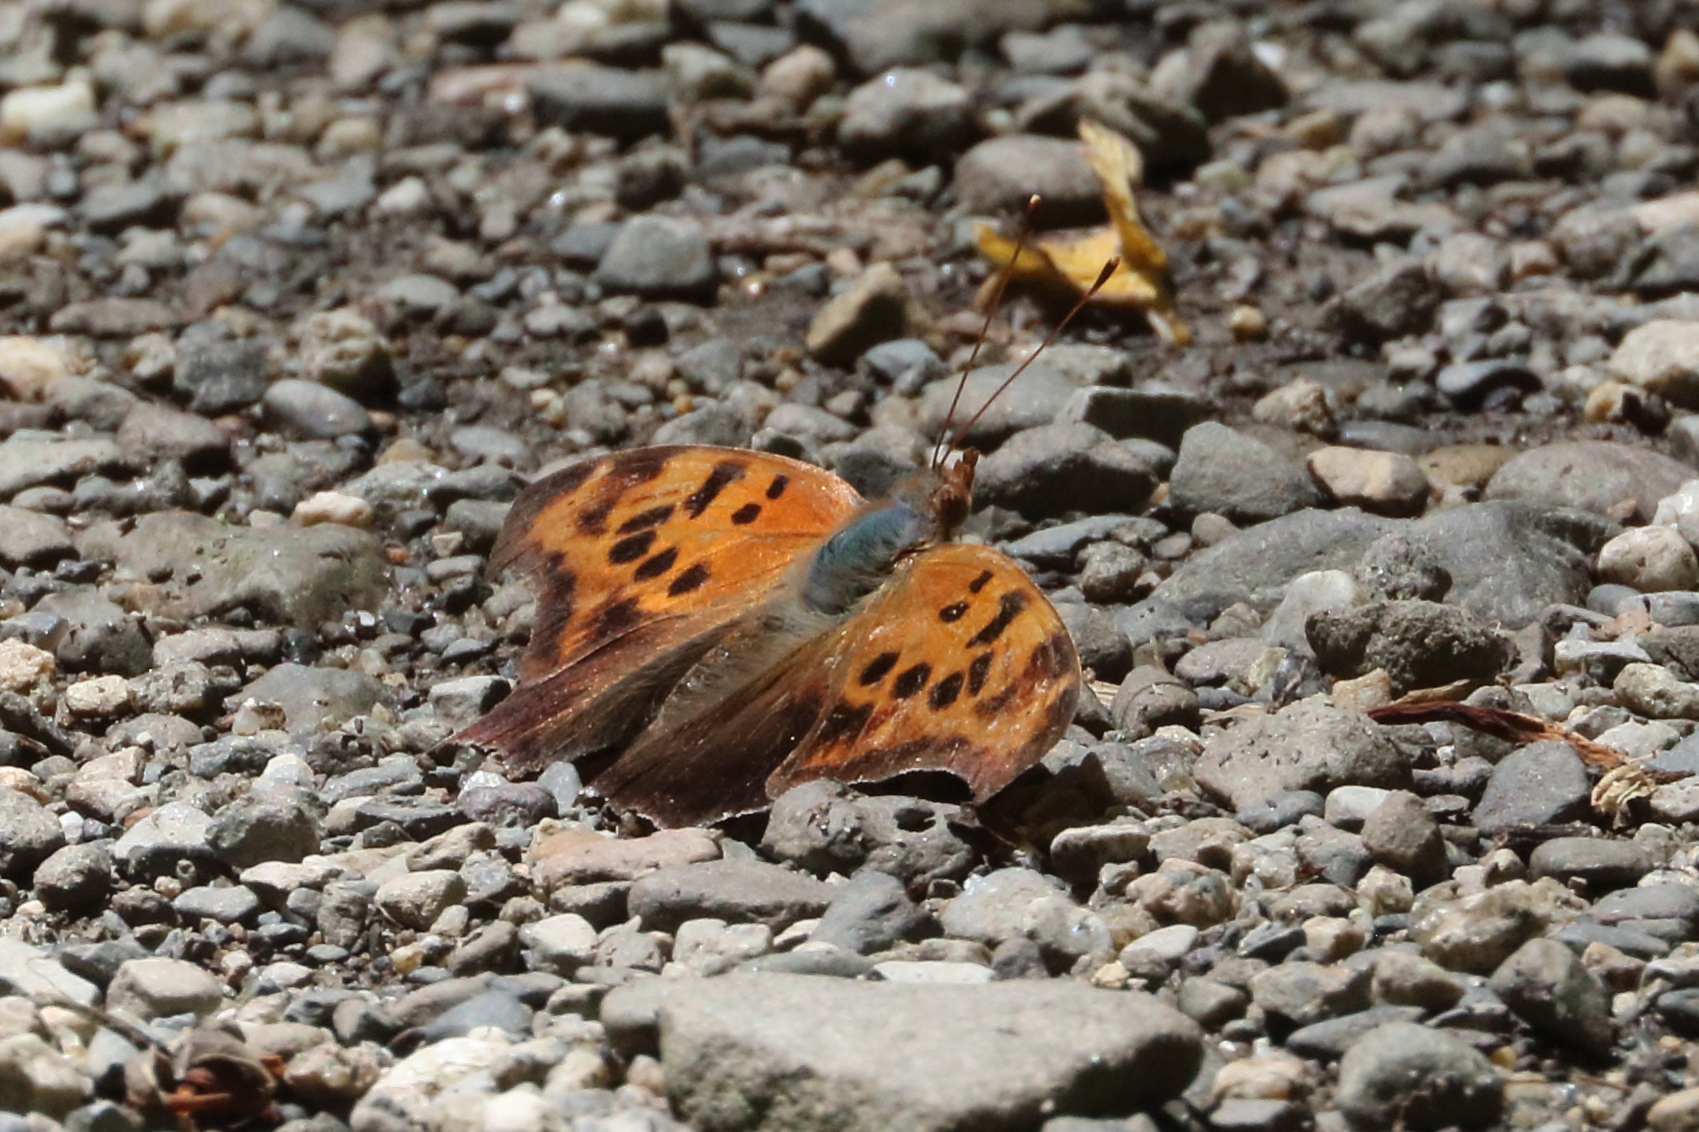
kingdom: Animalia
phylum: Arthropoda
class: Insecta
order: Lepidoptera
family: Nymphalidae
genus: Polygonia
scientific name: Polygonia interrogationis
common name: Question mark
